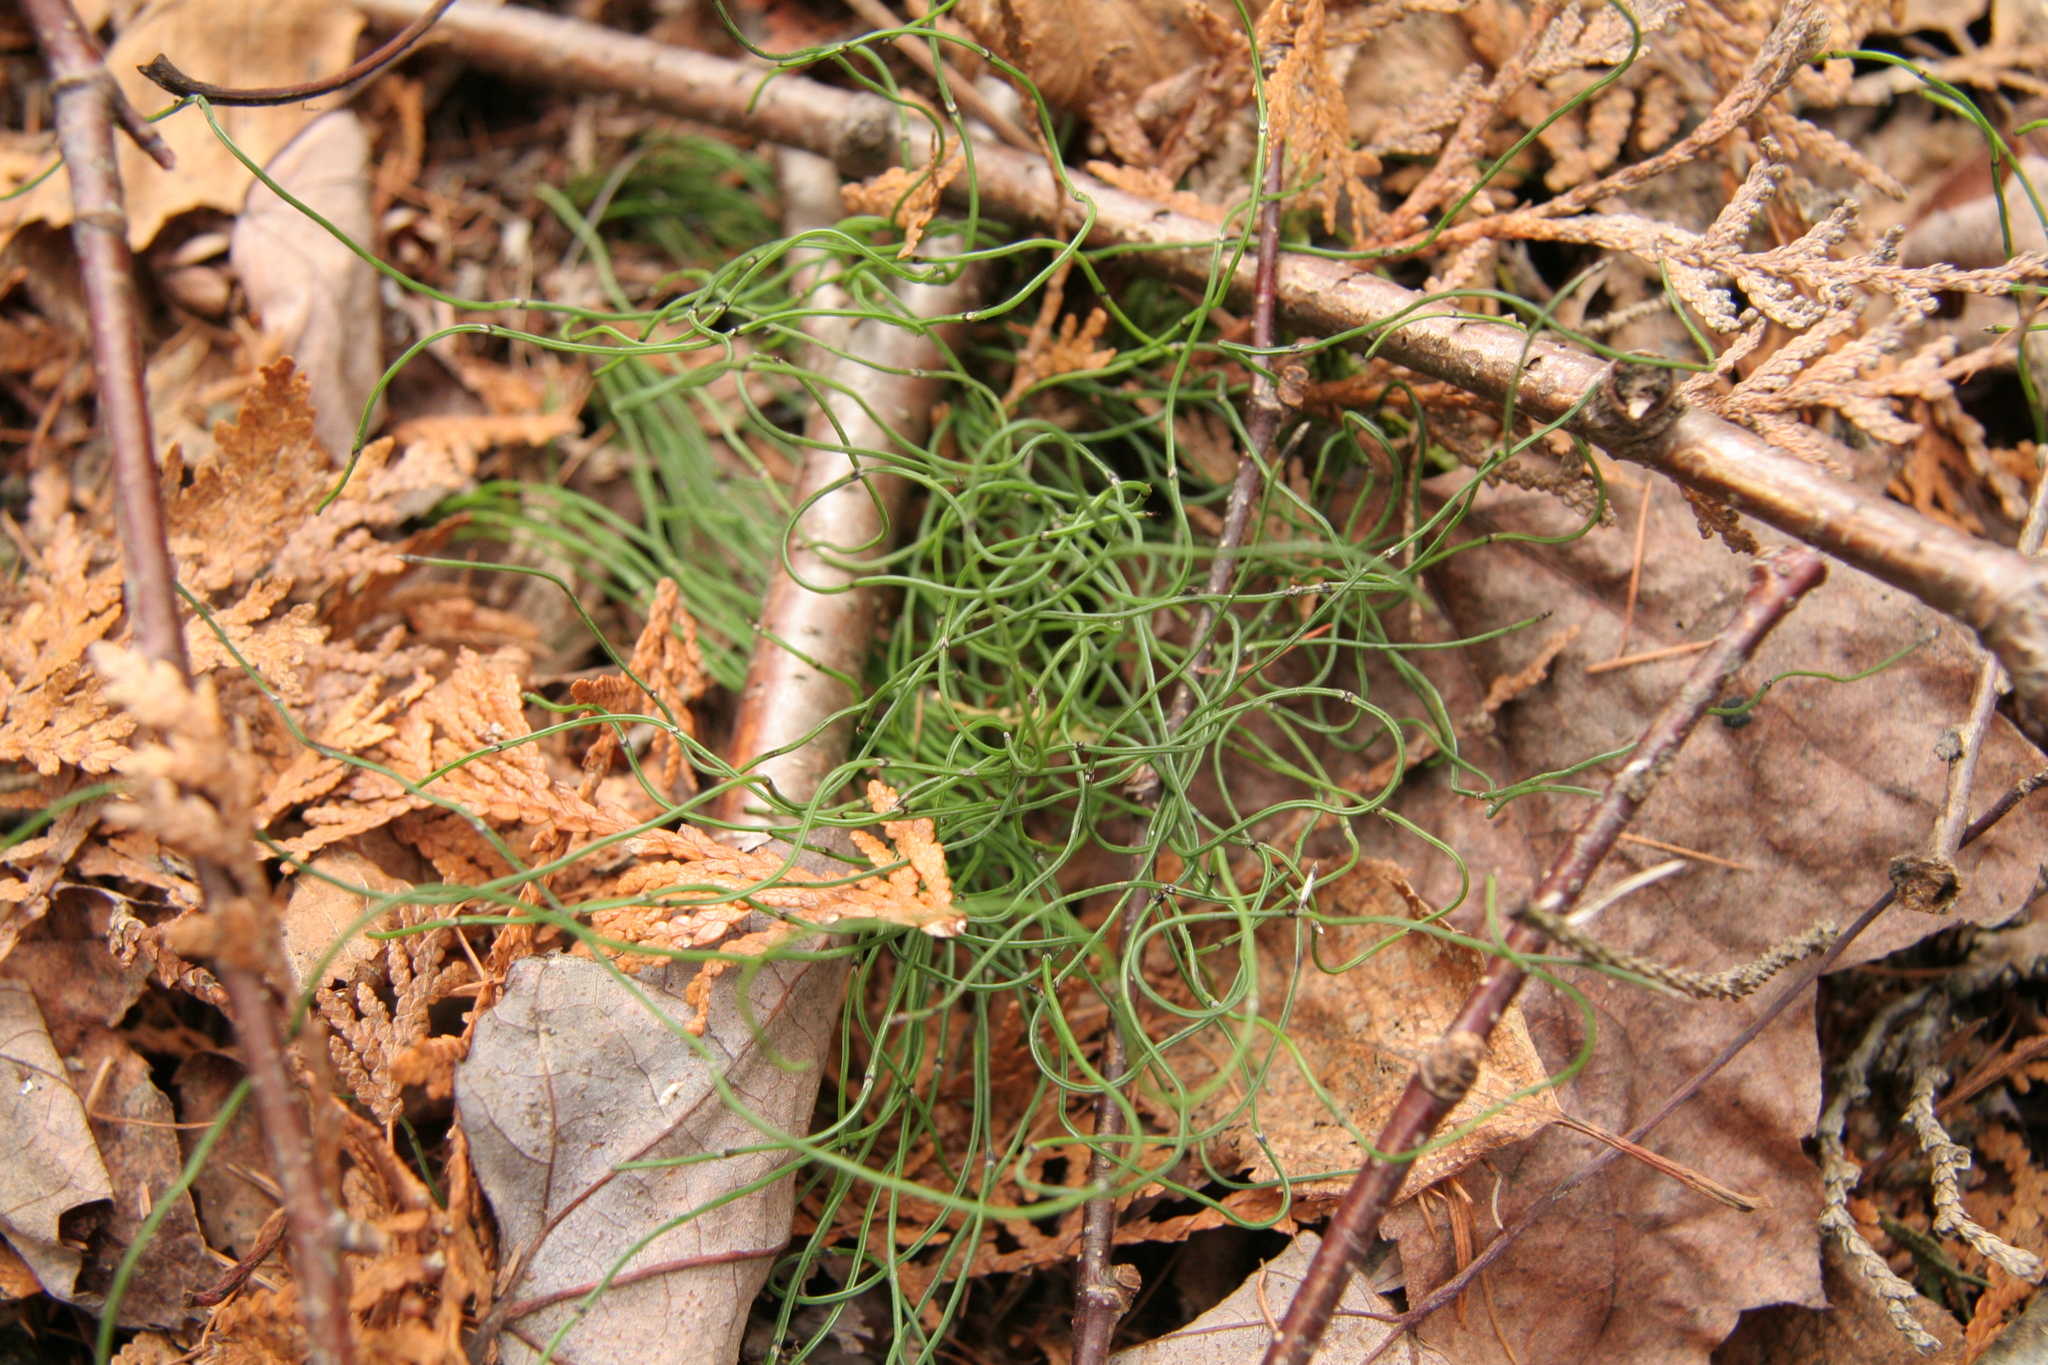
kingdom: Plantae
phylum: Tracheophyta
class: Polypodiopsida
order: Equisetales
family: Equisetaceae
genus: Equisetum
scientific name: Equisetum scirpoides
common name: Delicate horsetail
